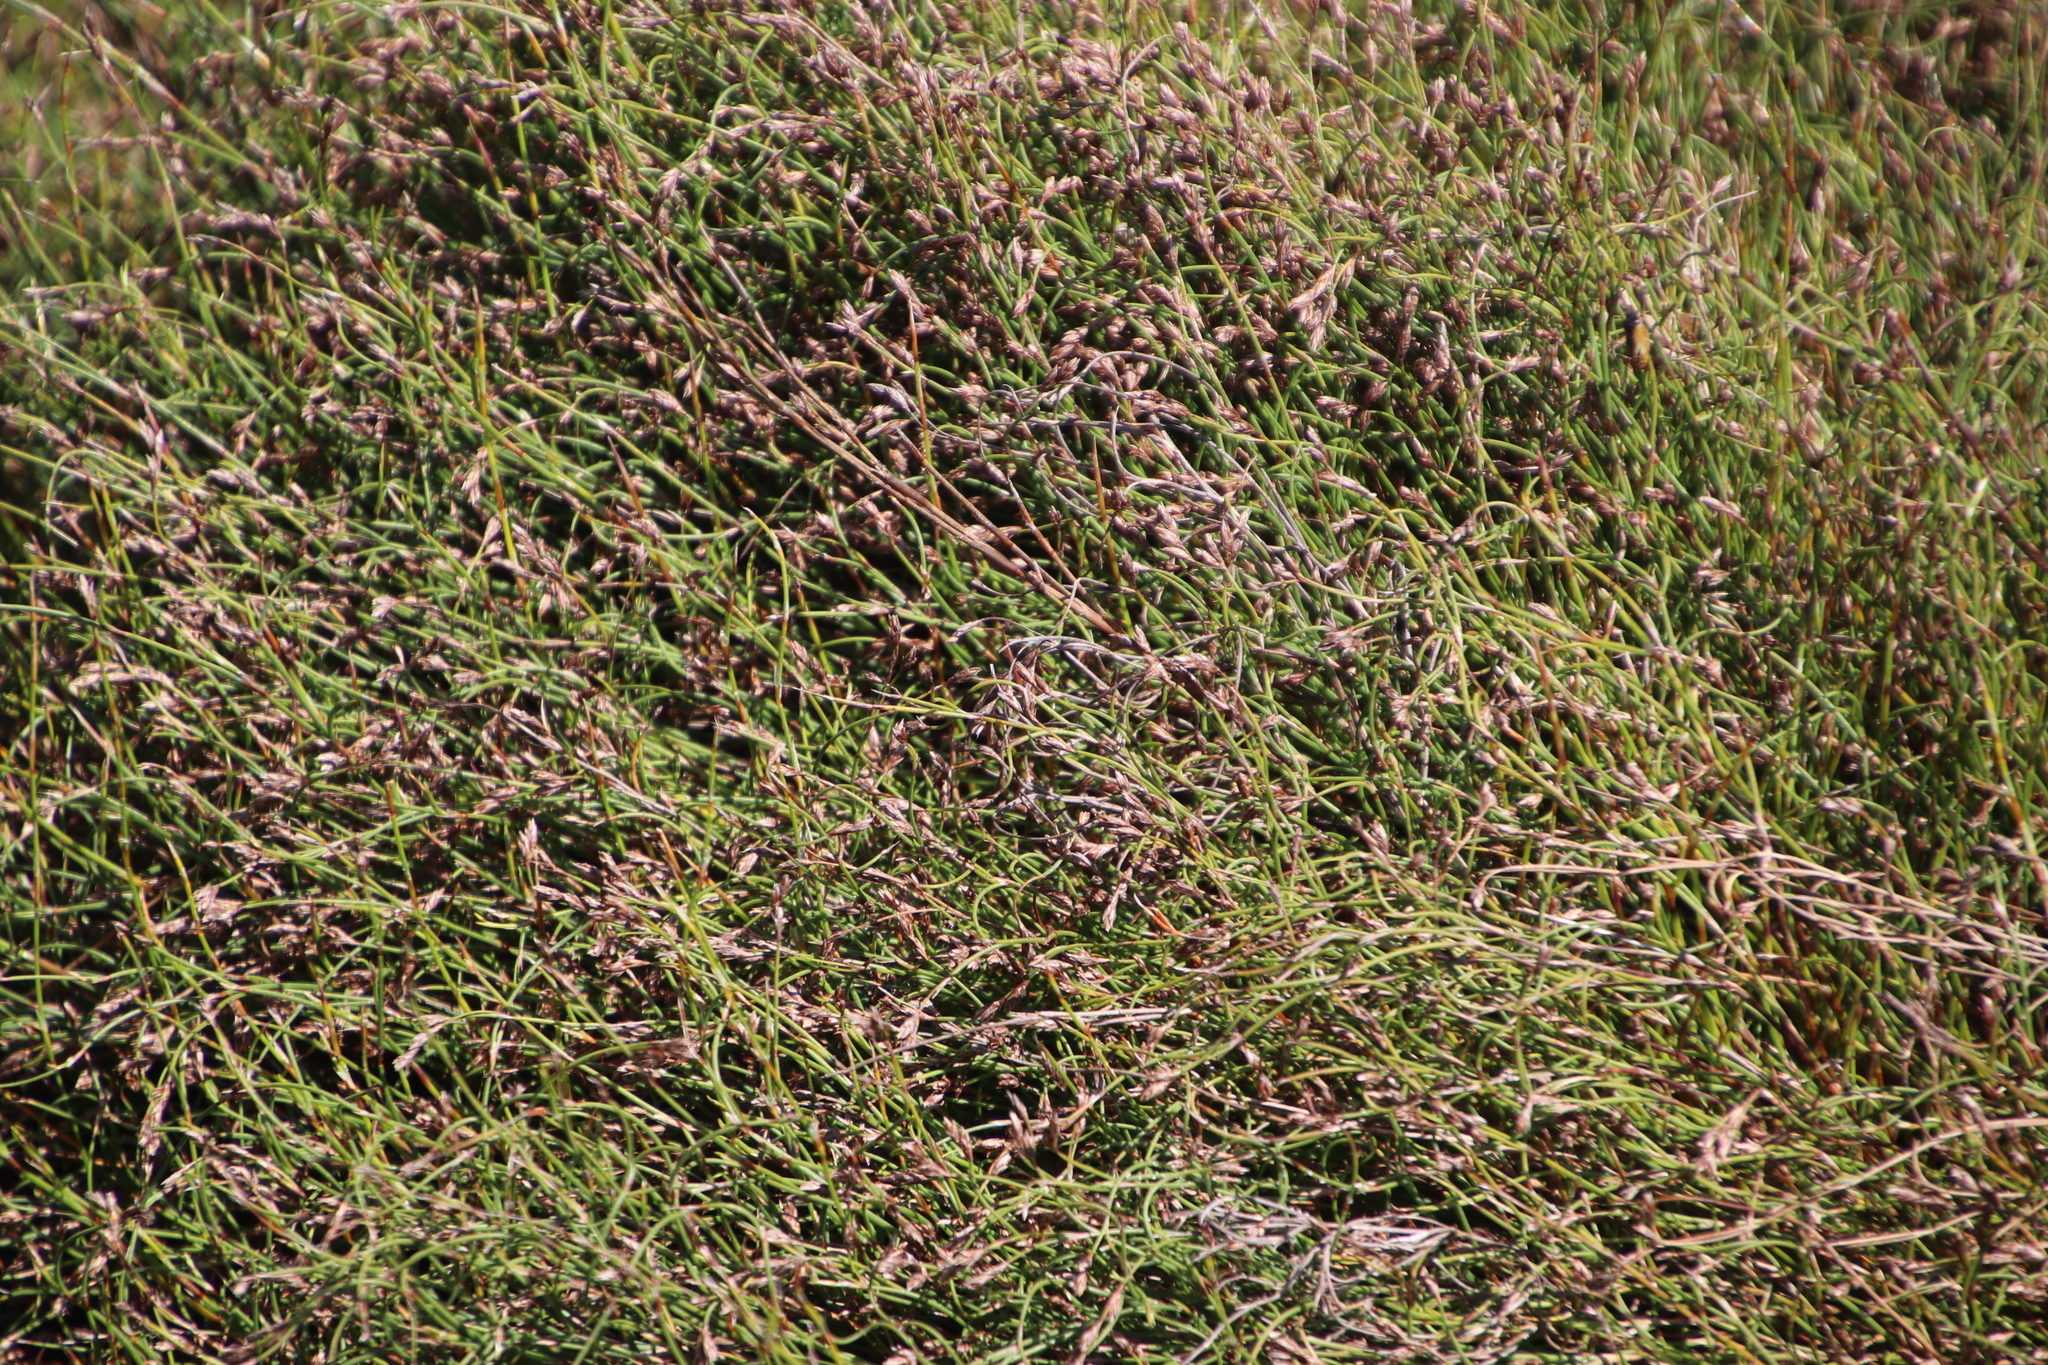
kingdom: Plantae
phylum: Tracheophyta
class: Liliopsida
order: Poales
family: Restionaceae
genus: Restio
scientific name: Restio perplexus
